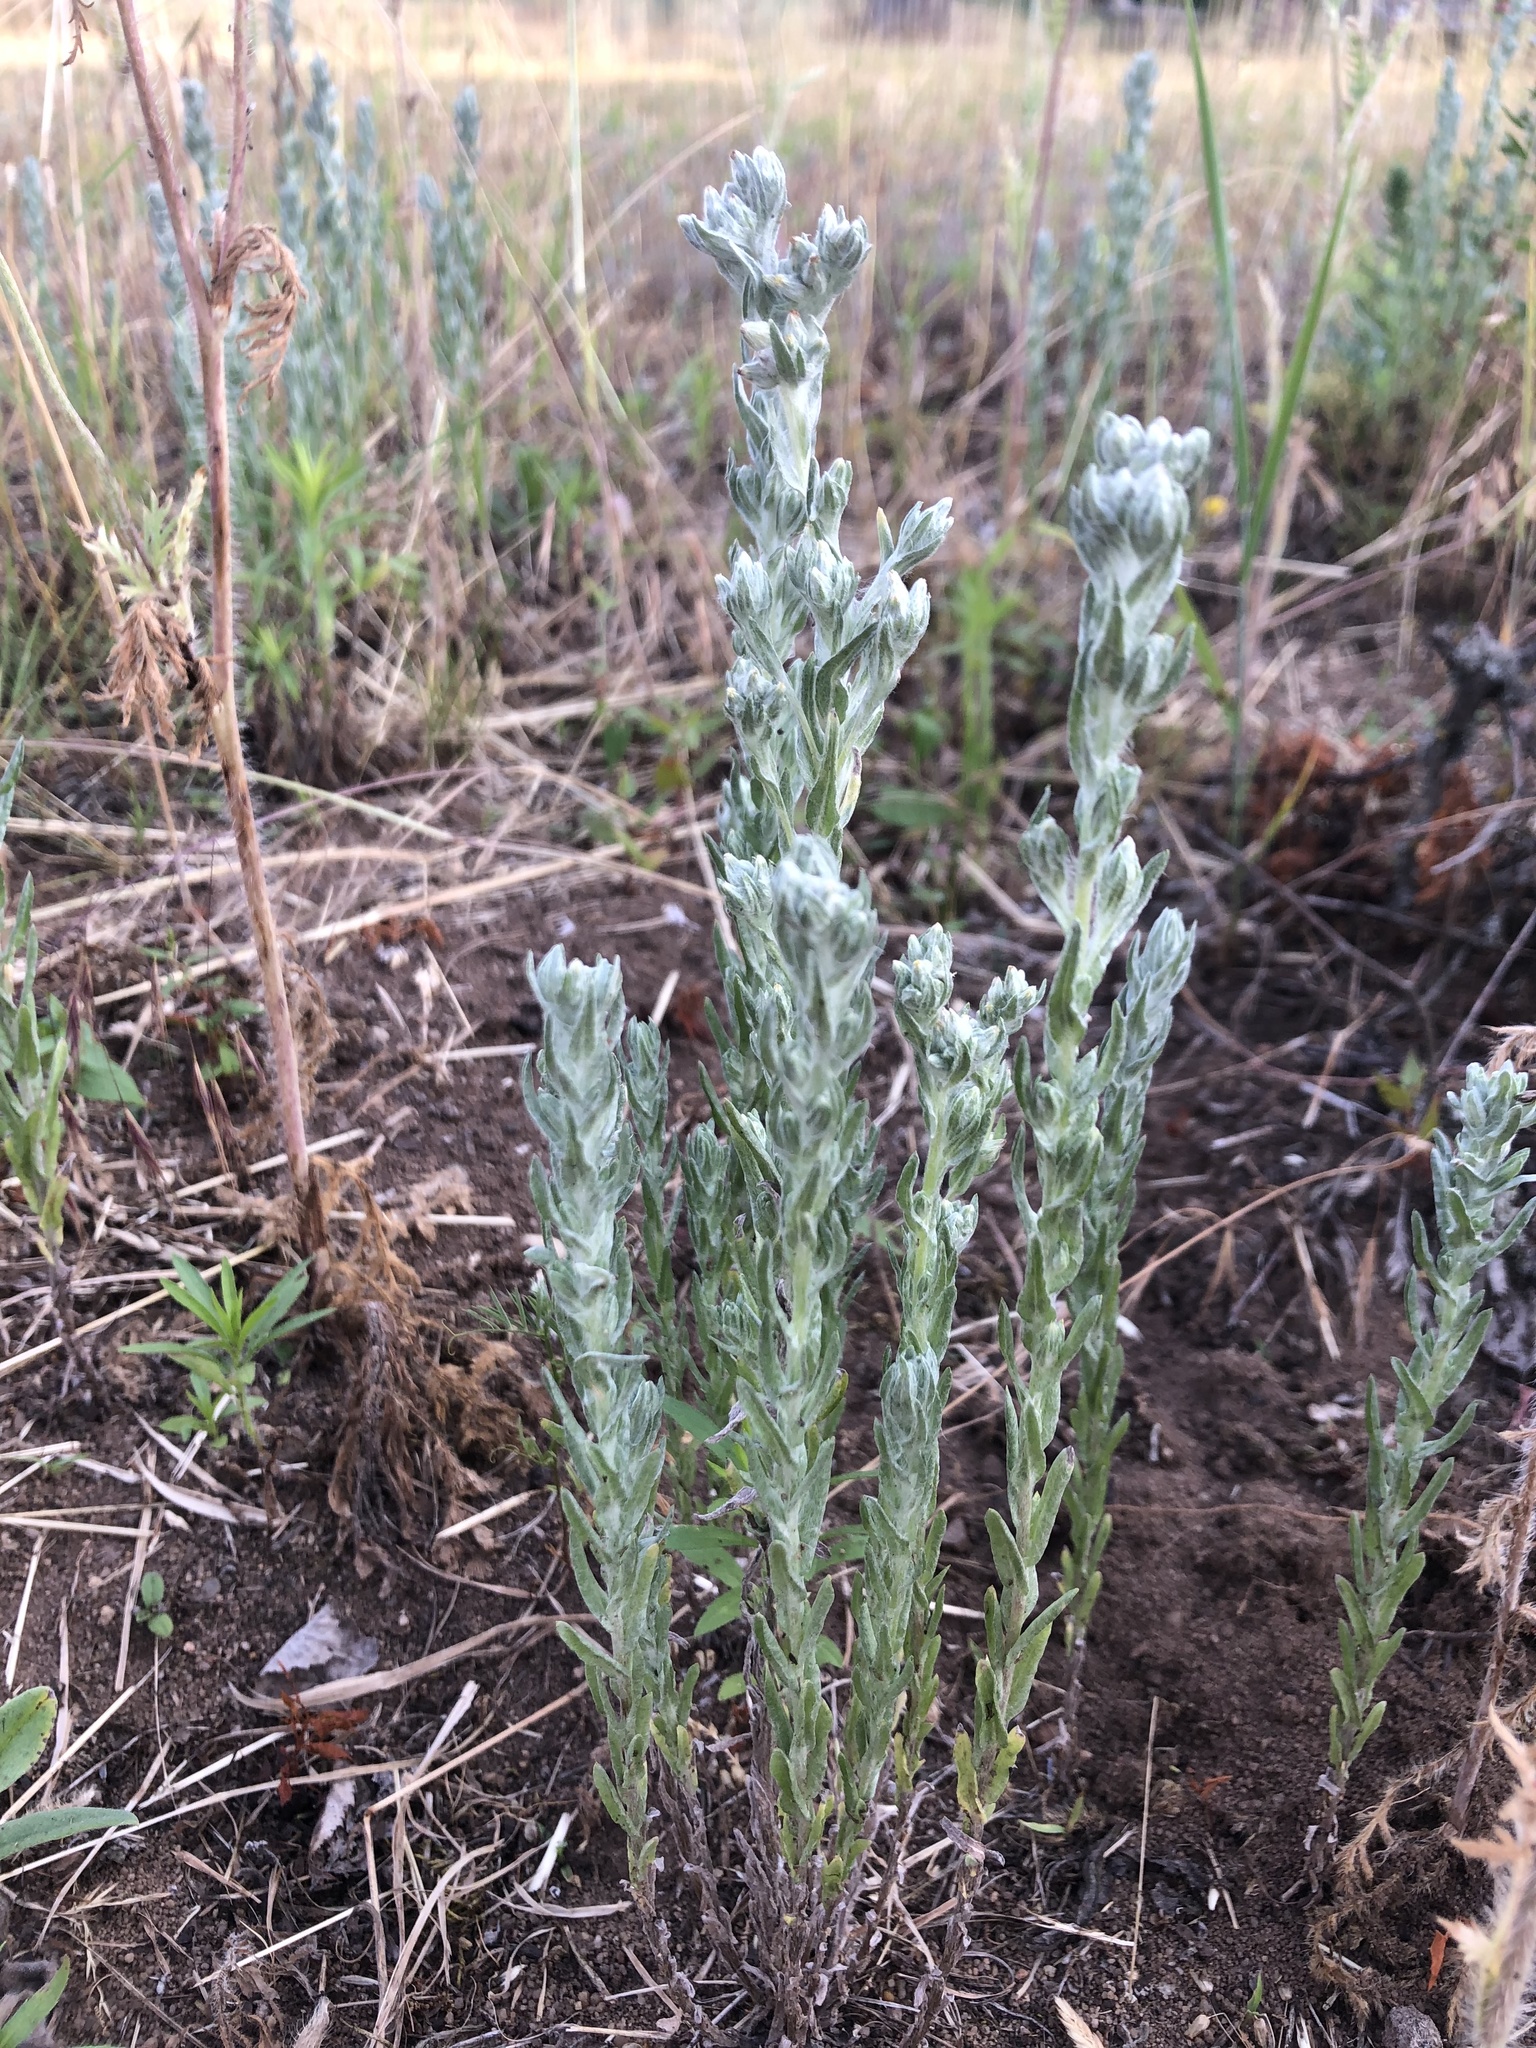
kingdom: Plantae
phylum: Tracheophyta
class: Magnoliopsida
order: Asterales
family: Asteraceae
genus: Filago
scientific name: Filago arvensis
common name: Field cudweed
